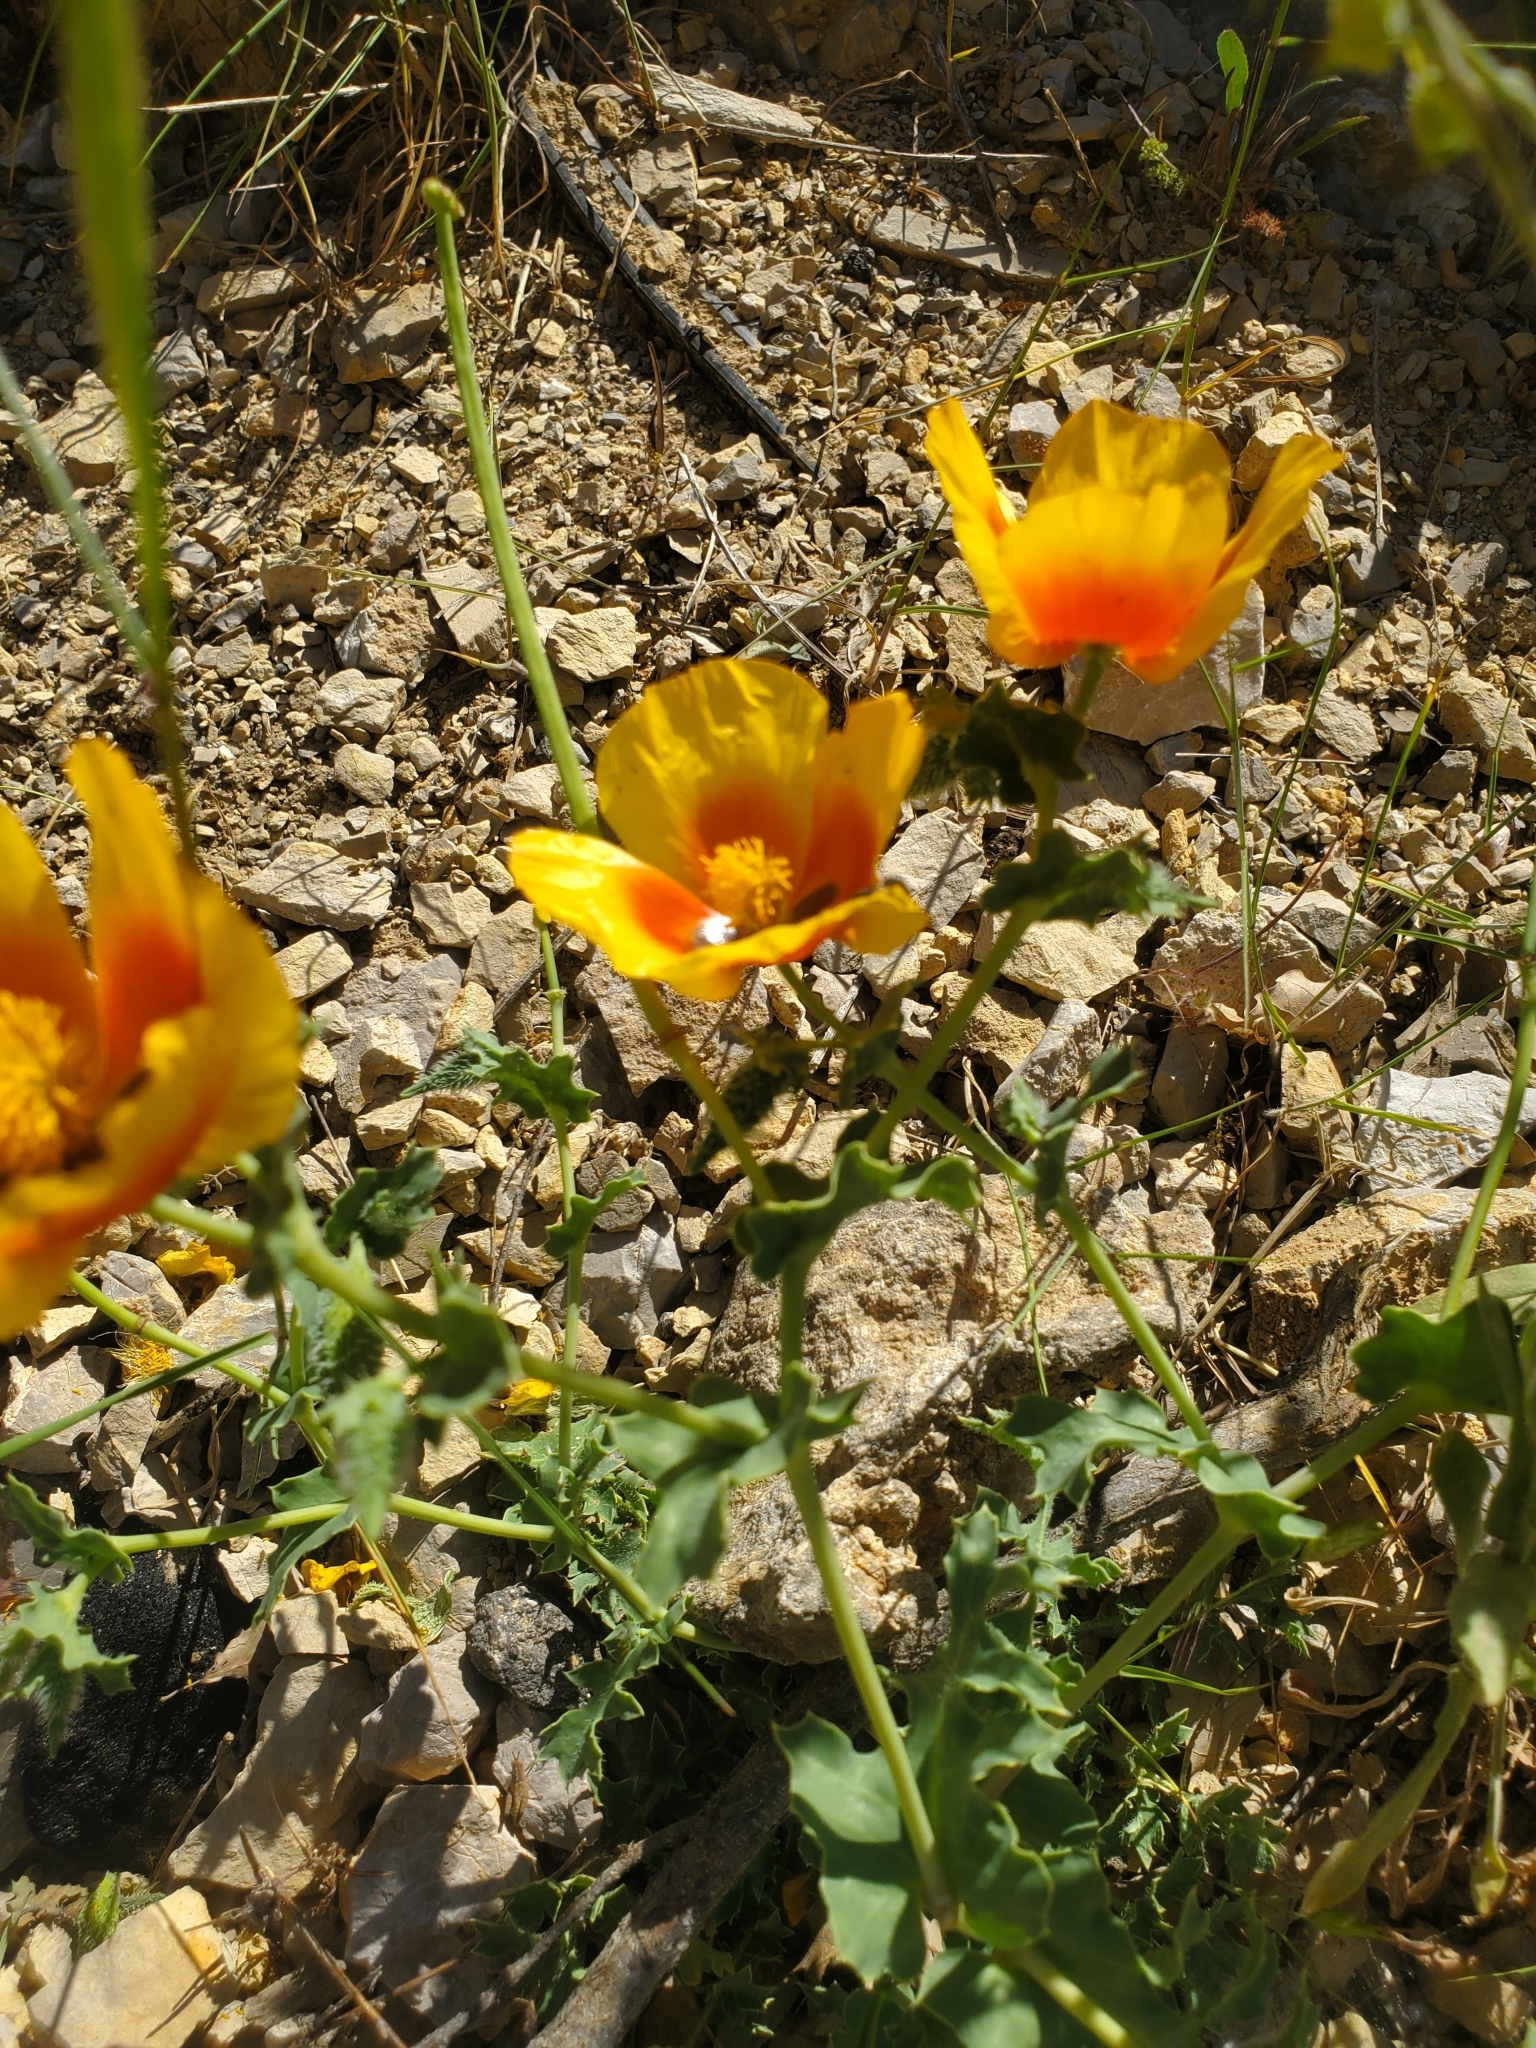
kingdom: Plantae
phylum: Tracheophyta
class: Magnoliopsida
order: Ranunculales
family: Papaveraceae
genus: Glaucium
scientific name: Glaucium
